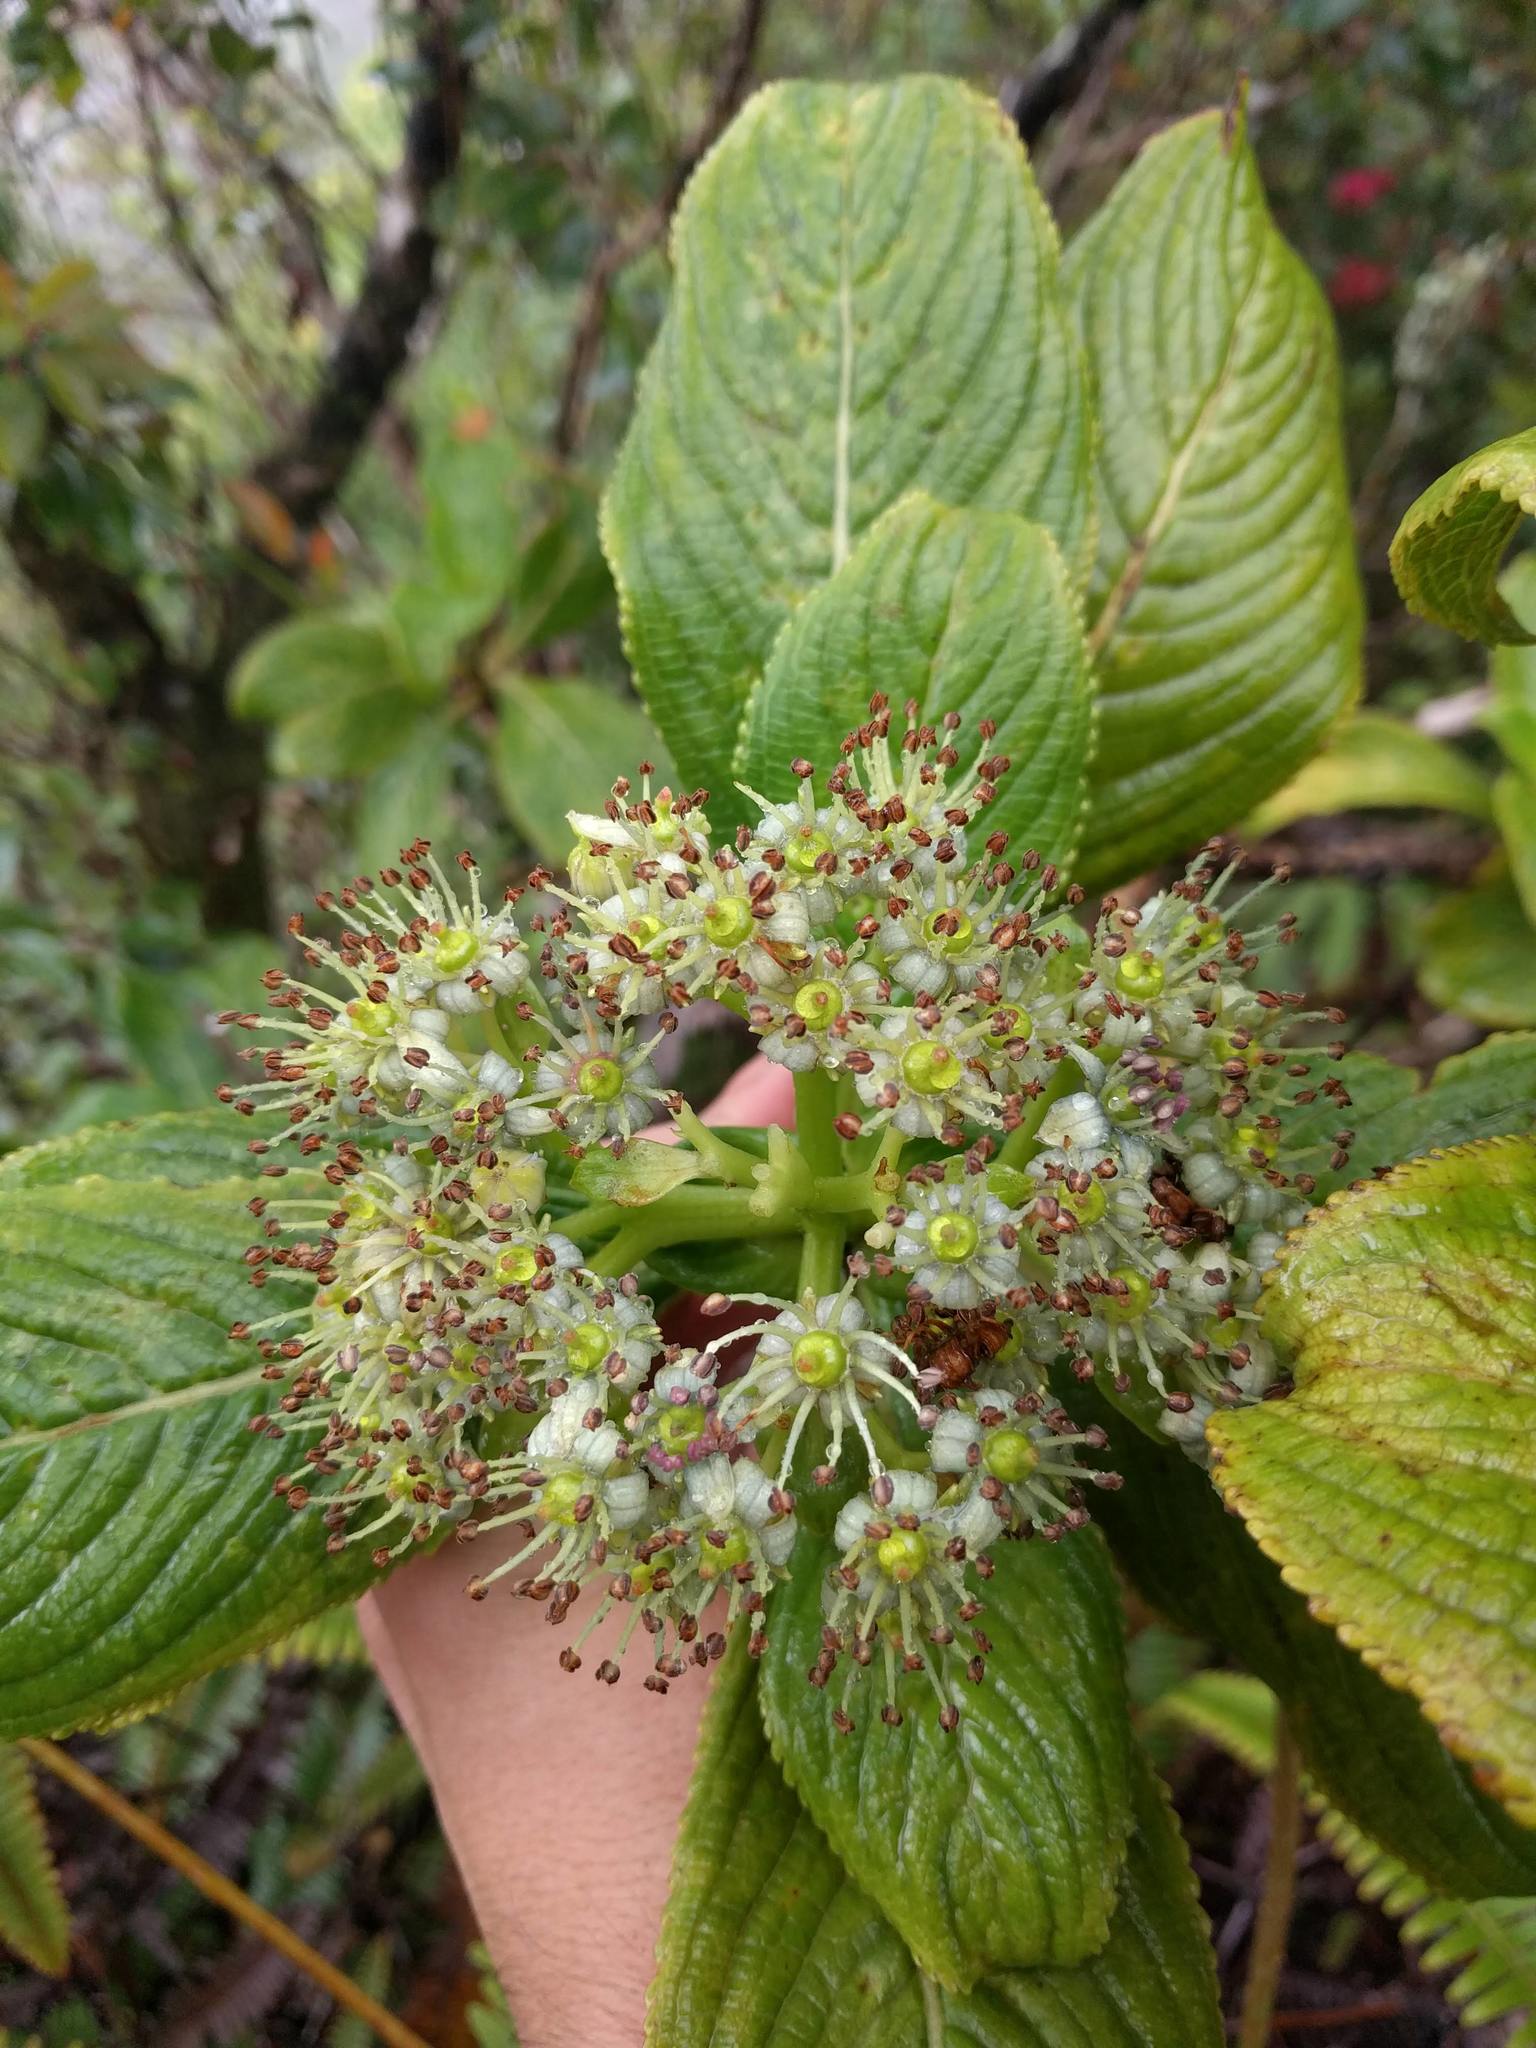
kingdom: Plantae
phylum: Tracheophyta
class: Magnoliopsida
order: Cornales
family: Hydrangeaceae
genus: Hydrangea
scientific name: Hydrangea arguta
